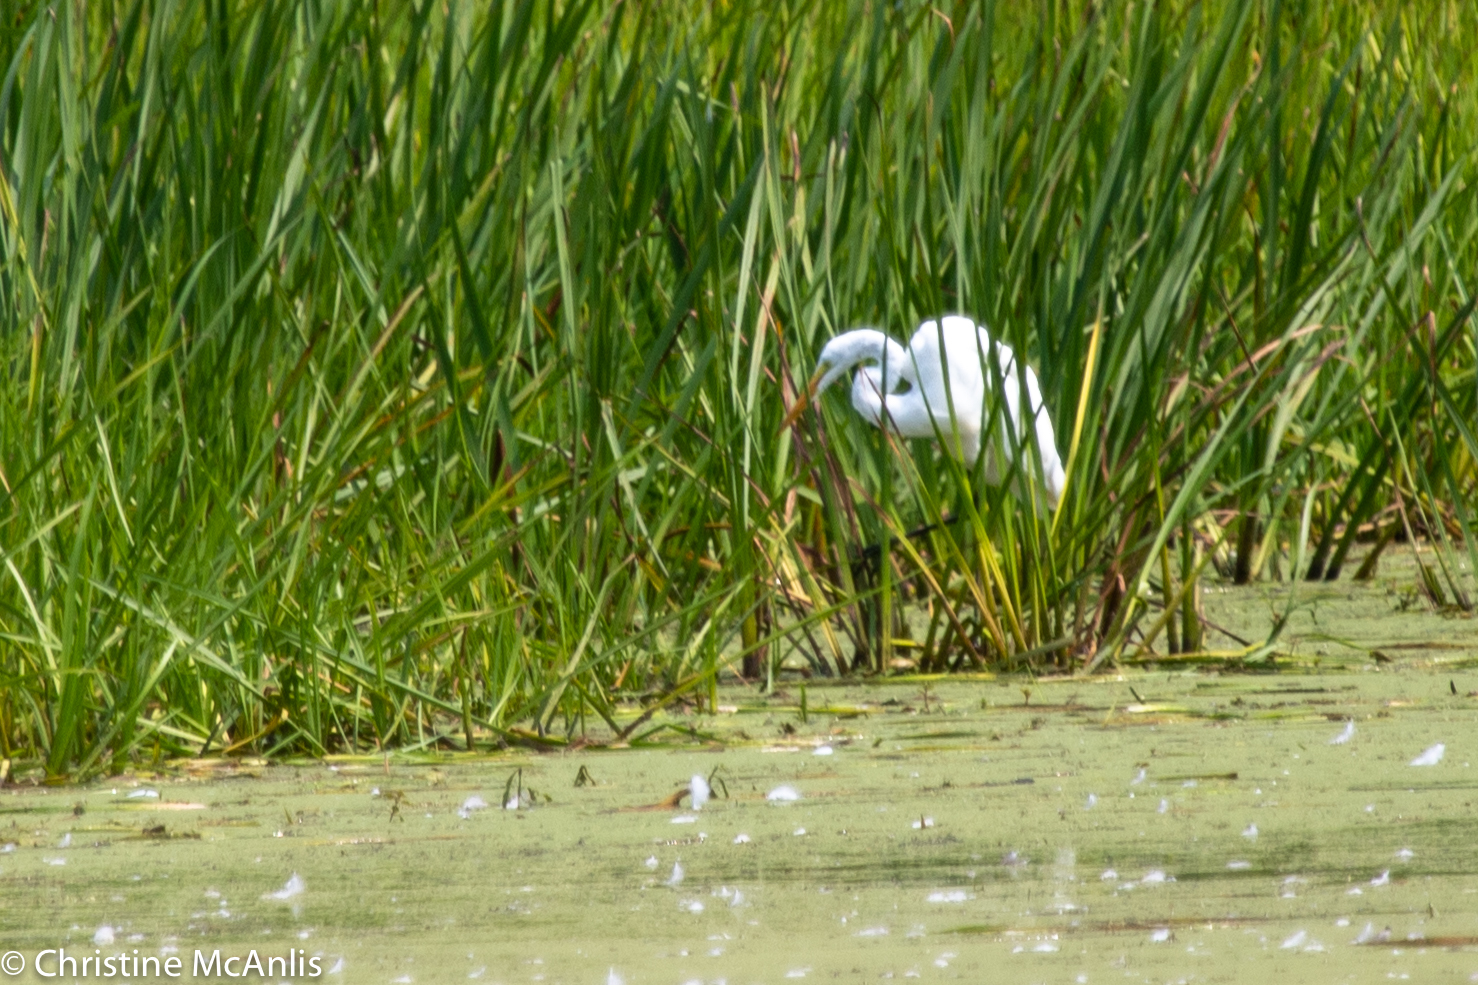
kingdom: Animalia
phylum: Chordata
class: Aves
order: Pelecaniformes
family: Ardeidae
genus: Ardea
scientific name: Ardea alba
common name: Great egret
